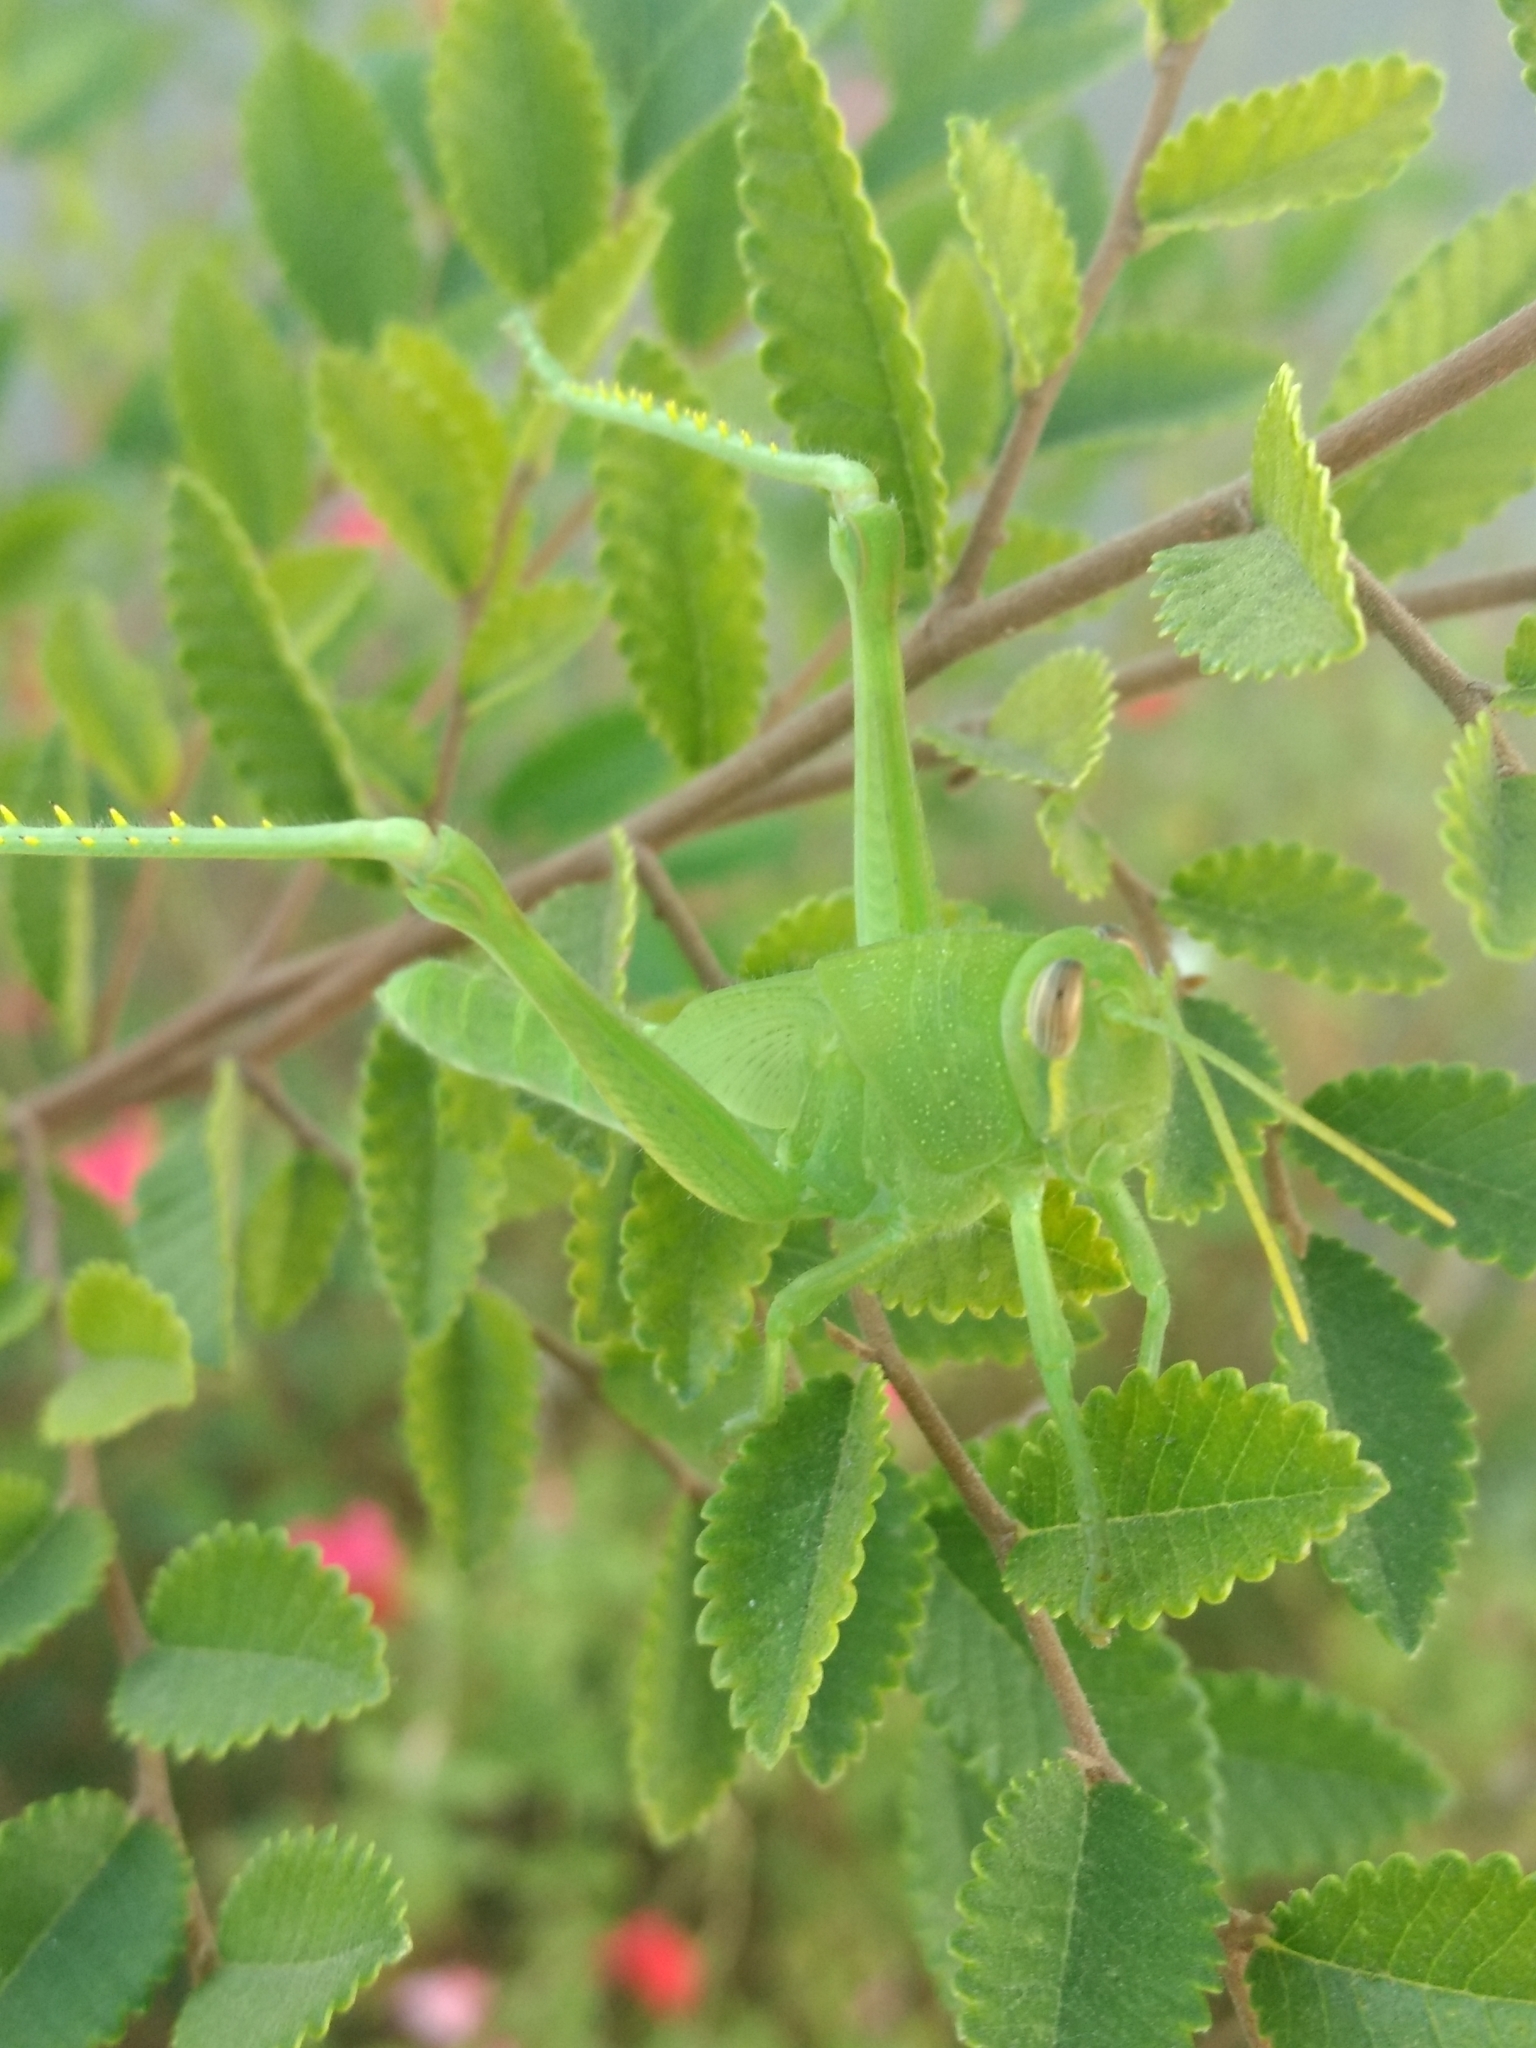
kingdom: Animalia
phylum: Arthropoda
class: Insecta
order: Orthoptera
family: Acrididae
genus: Schistocerca
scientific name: Schistocerca nitens
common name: Vagrant grasshopper
